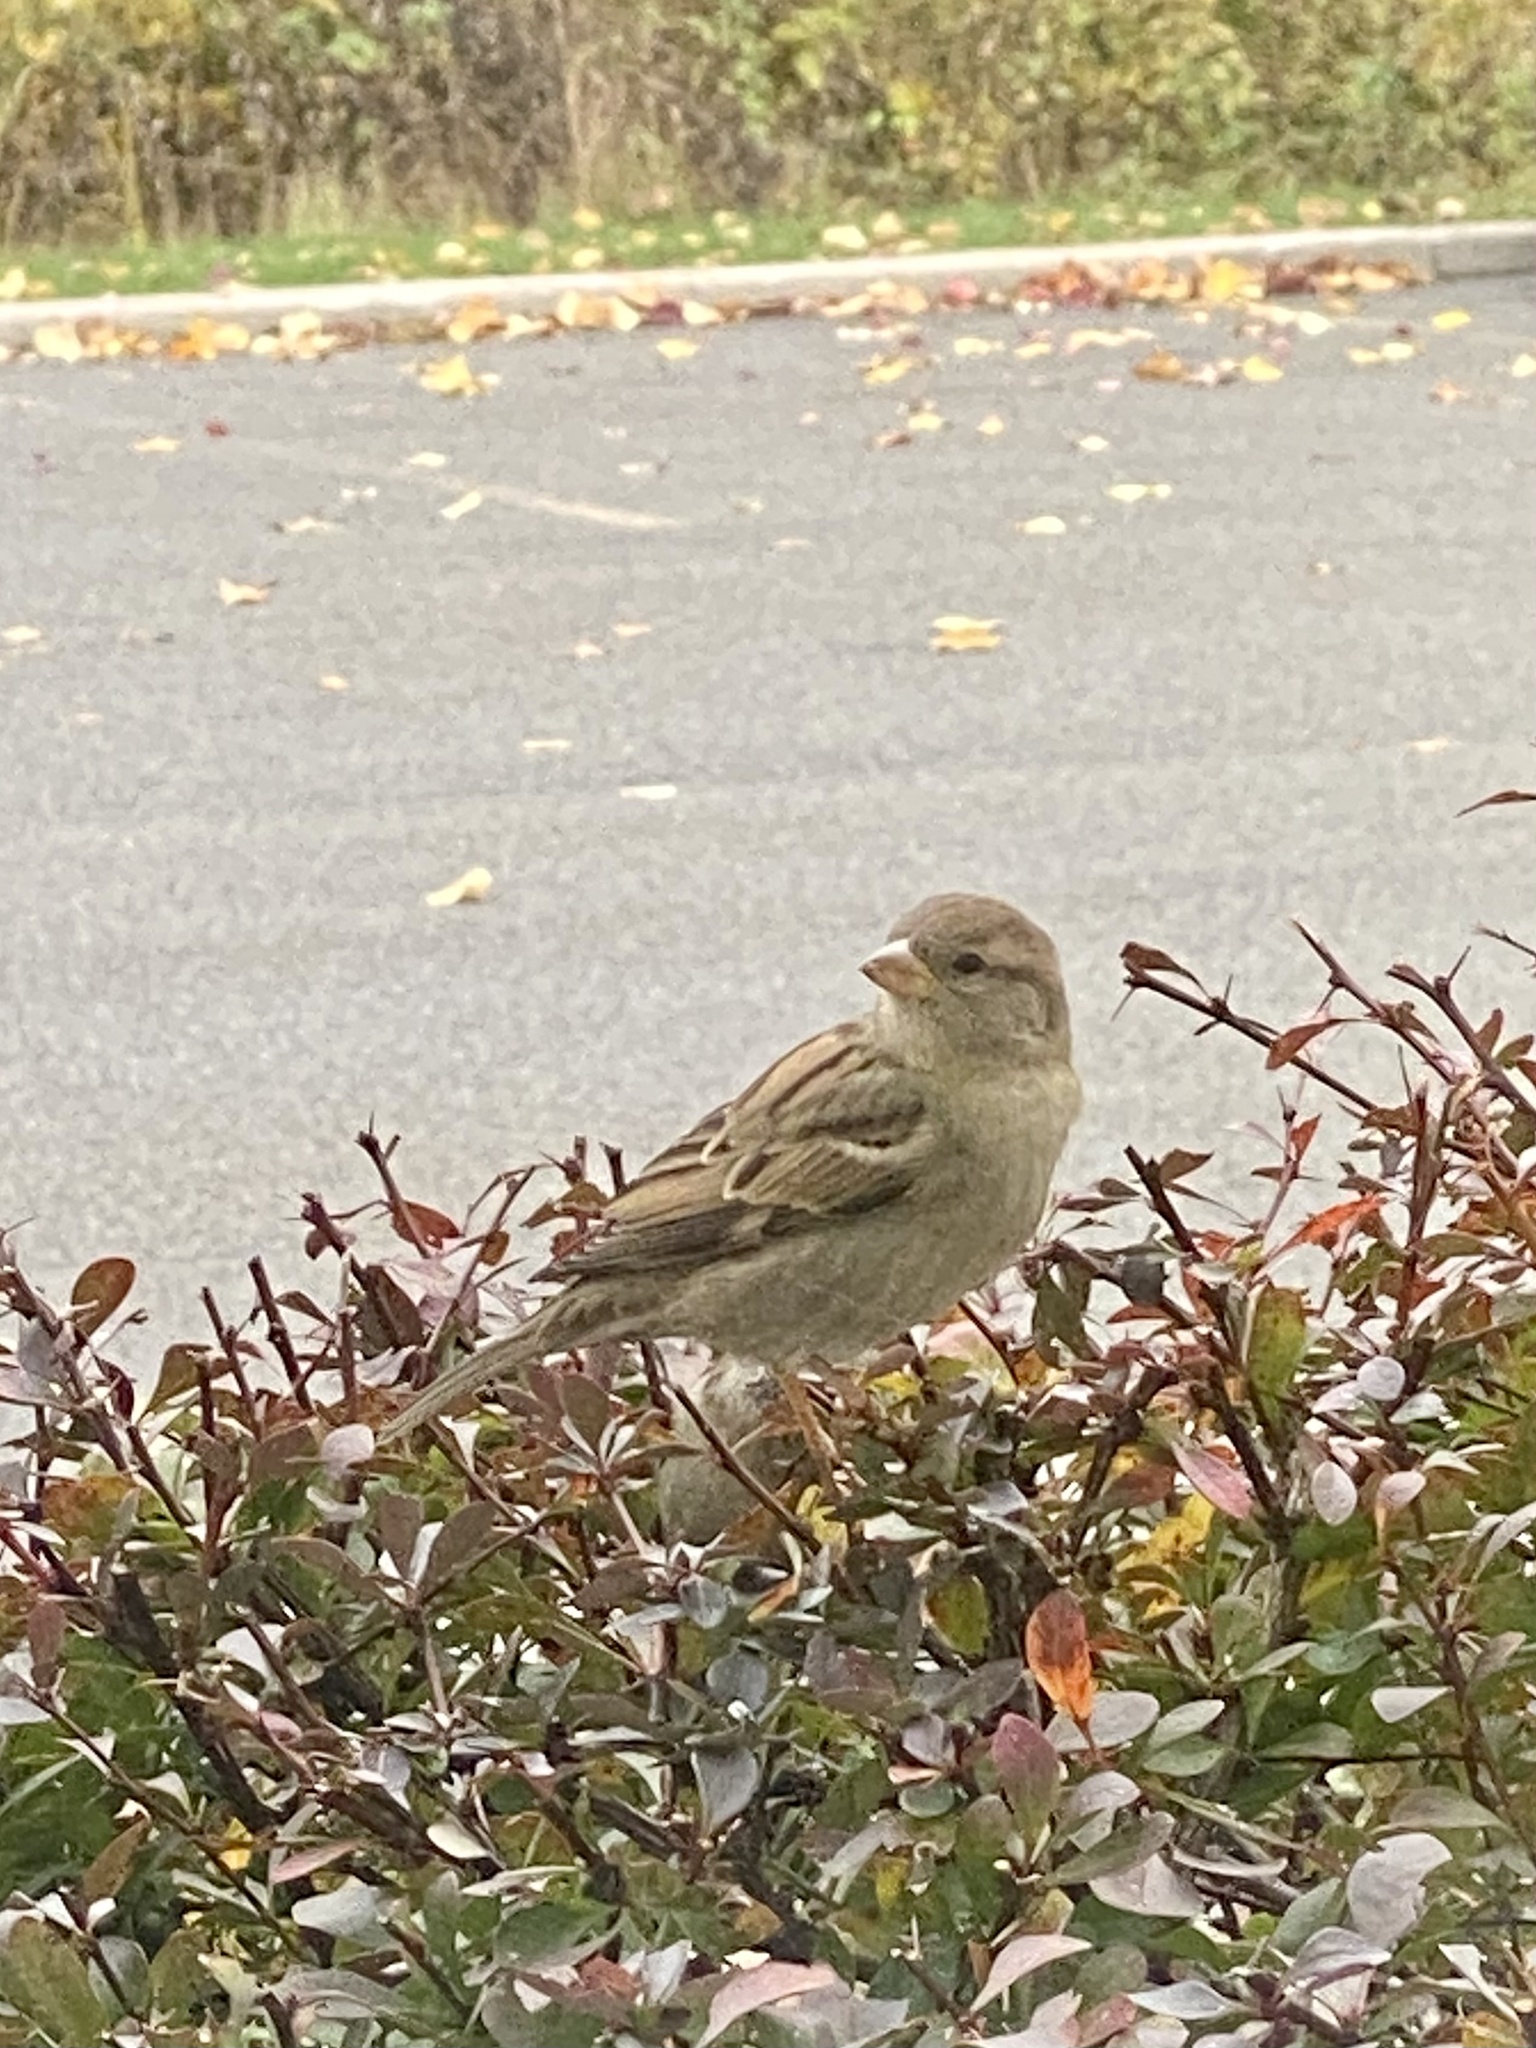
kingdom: Animalia
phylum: Chordata
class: Aves
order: Passeriformes
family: Passeridae
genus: Passer
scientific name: Passer domesticus
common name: House sparrow
